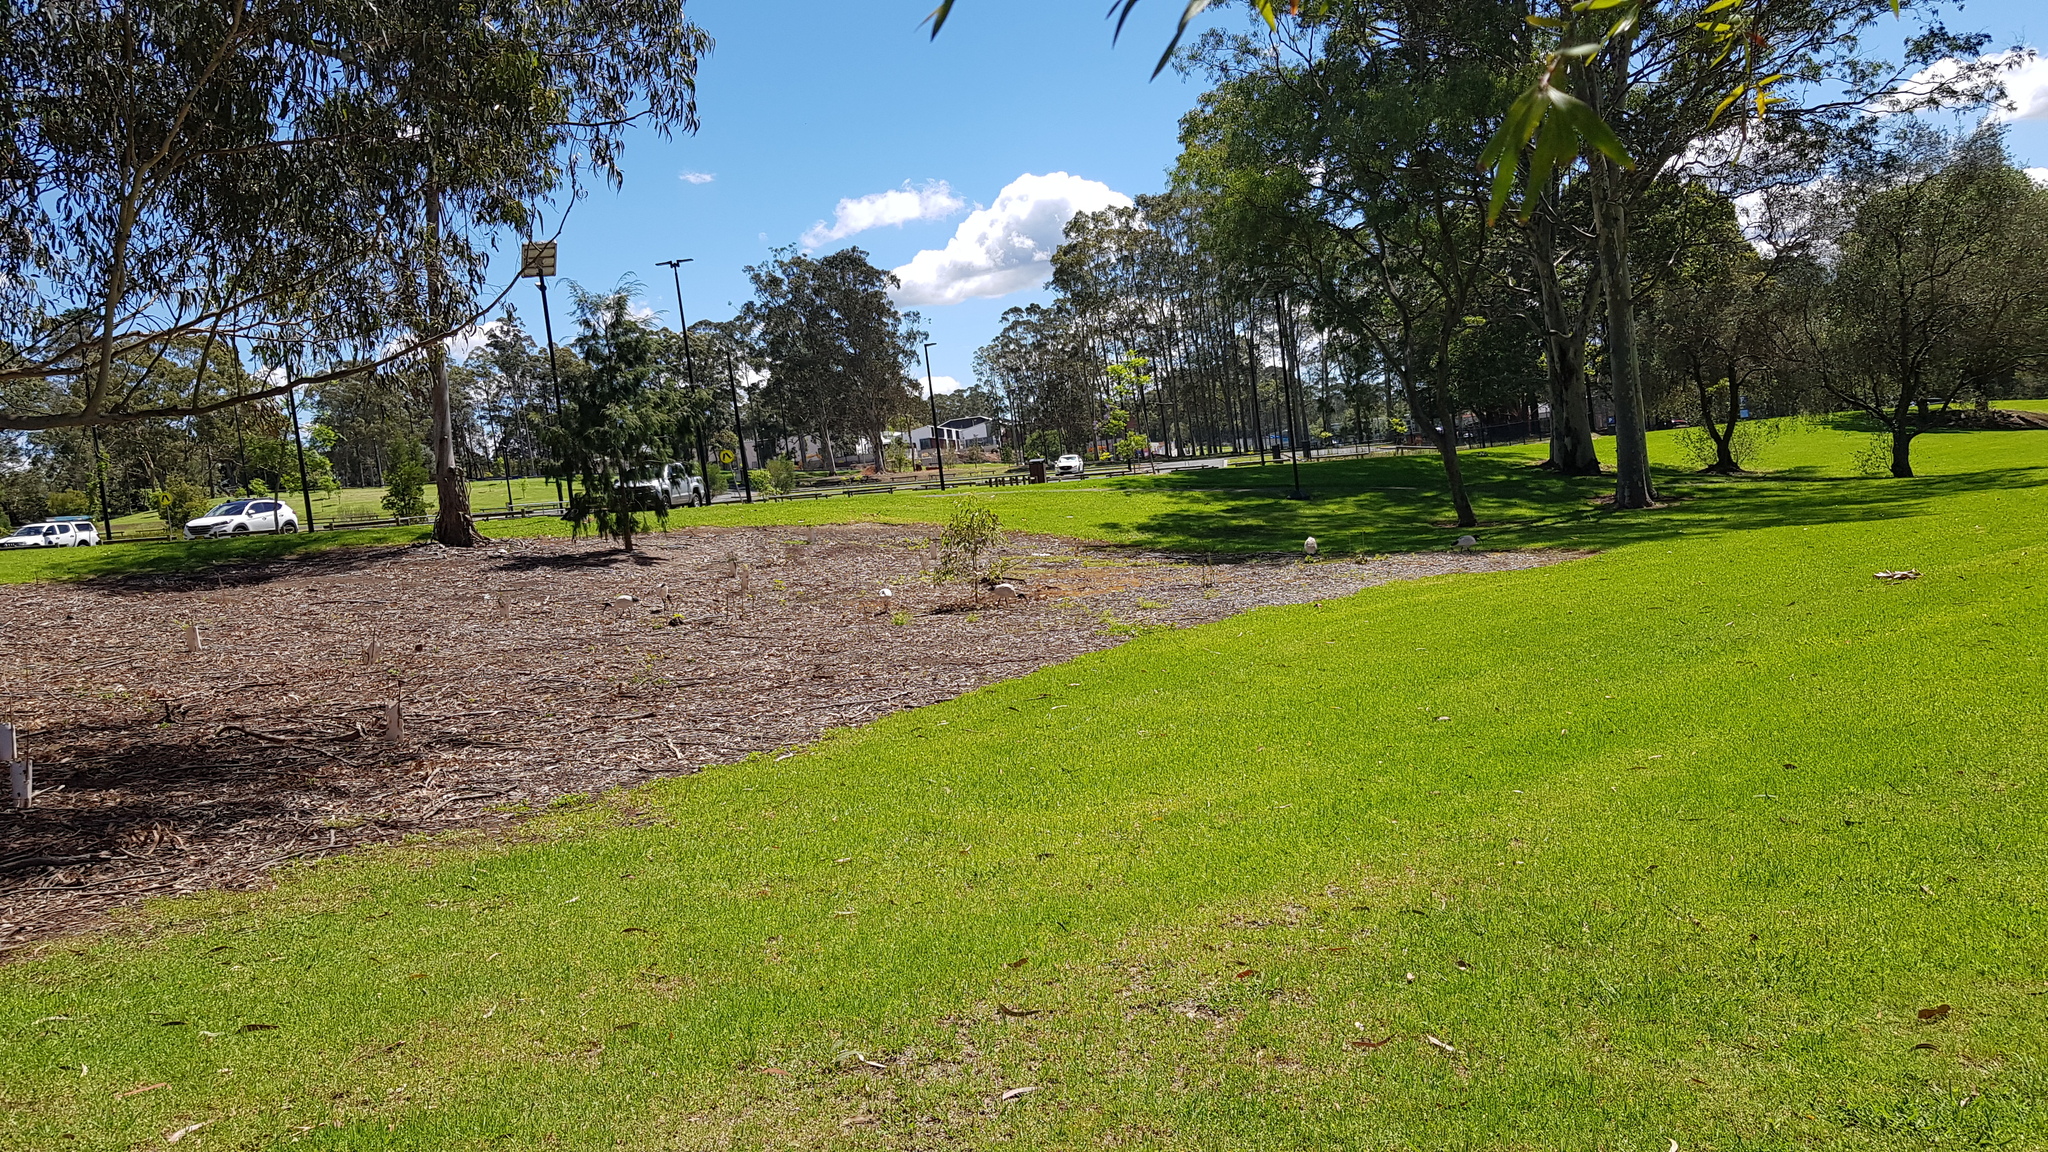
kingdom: Animalia
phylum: Chordata
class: Aves
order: Pelecaniformes
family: Threskiornithidae
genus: Threskiornis
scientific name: Threskiornis molucca
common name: Australian white ibis
